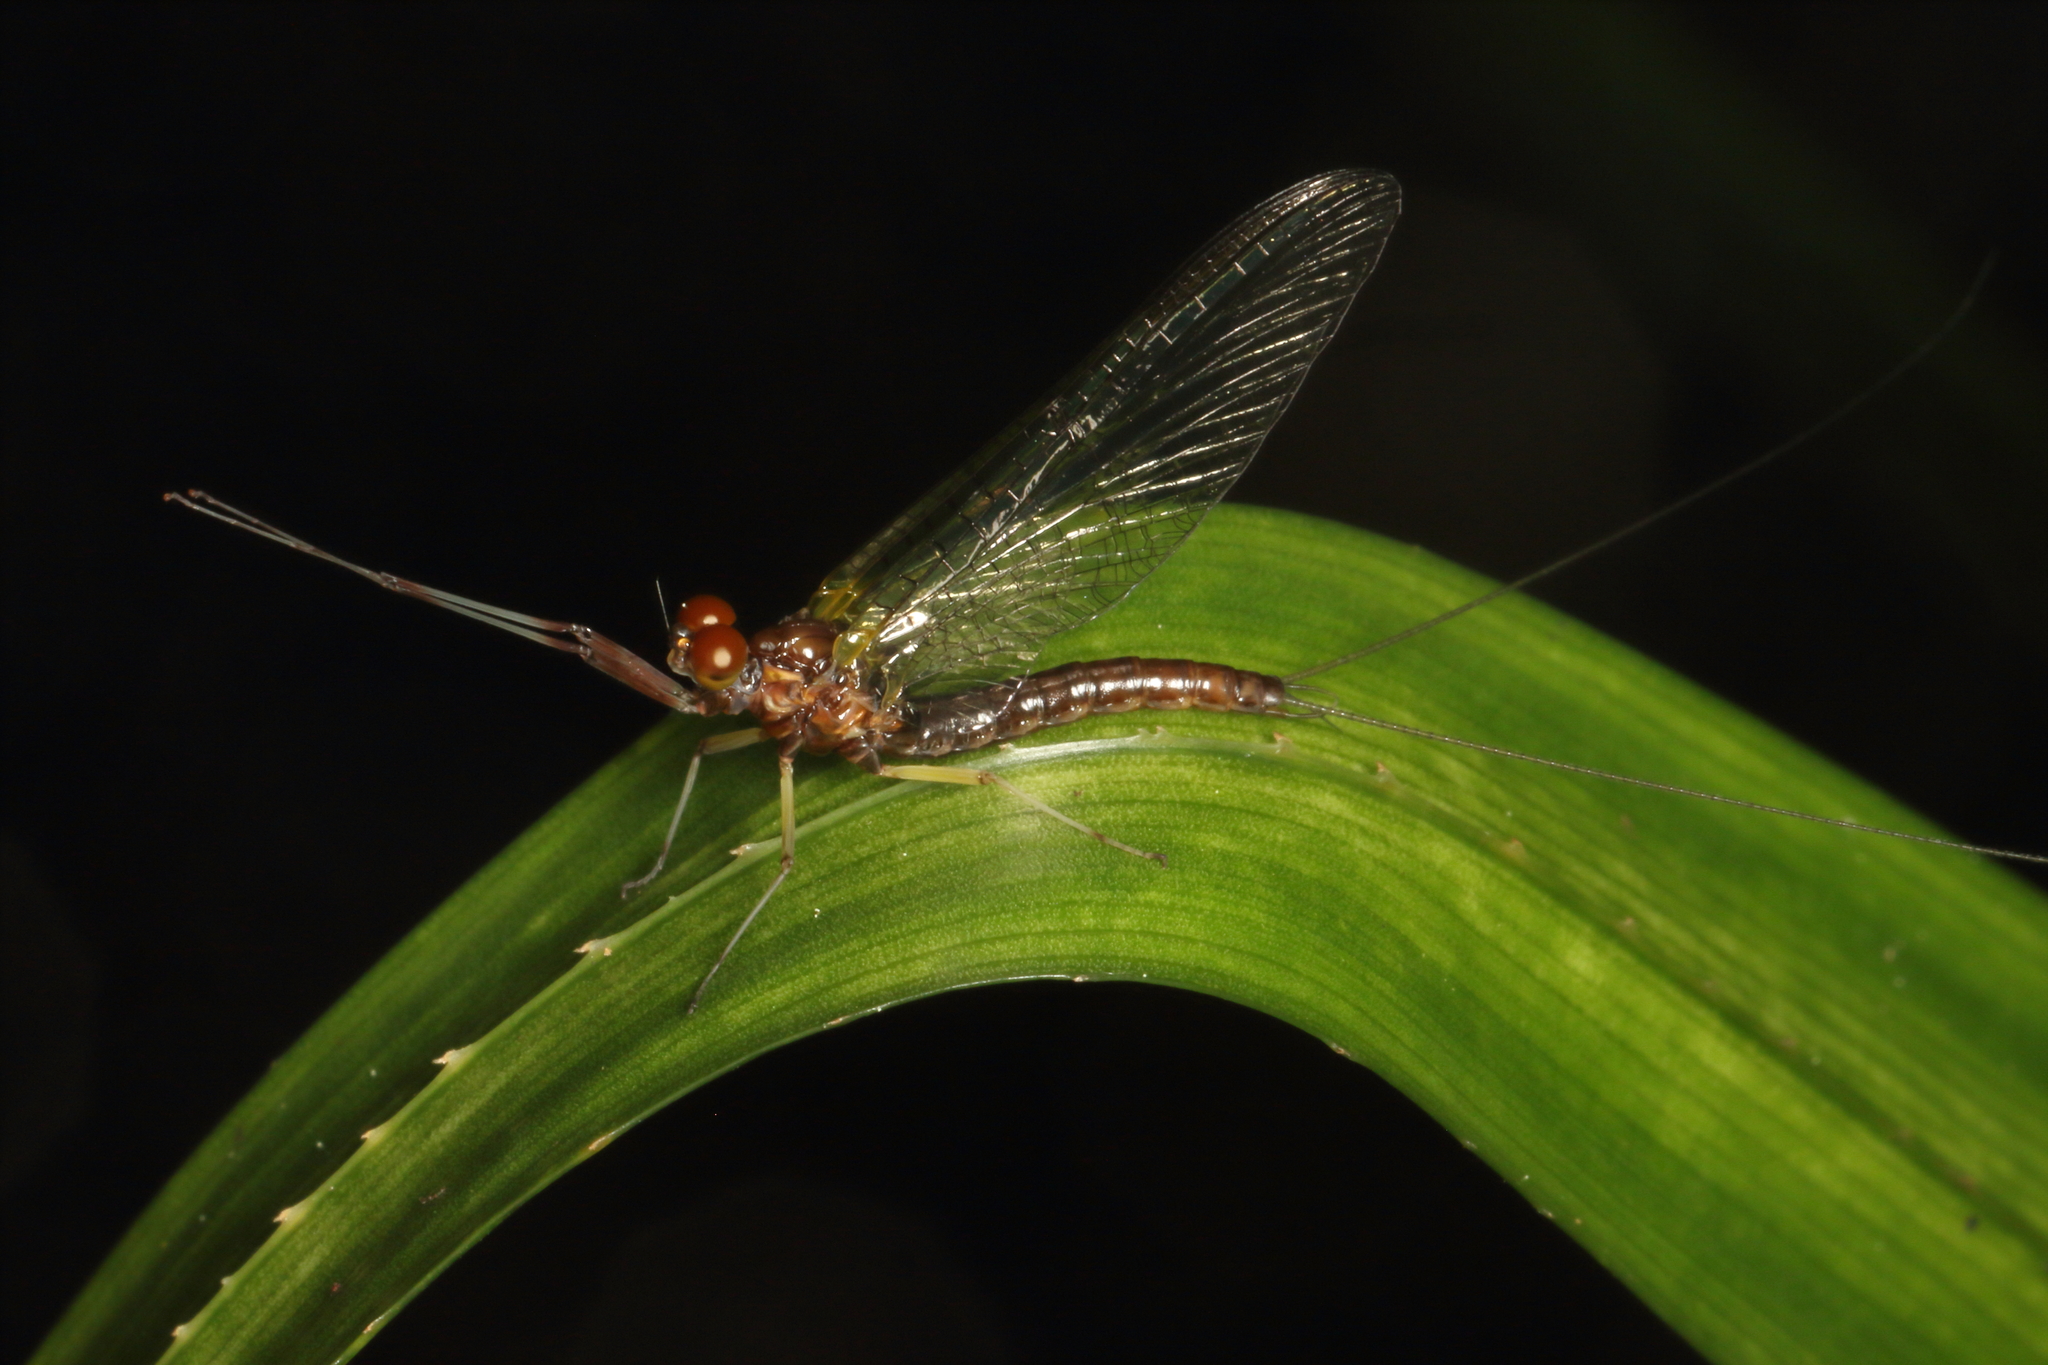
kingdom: Animalia
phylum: Arthropoda
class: Insecta
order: Ephemeroptera
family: Coloburiscidae
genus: Coloburiscus
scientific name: Coloburiscus humeralis
